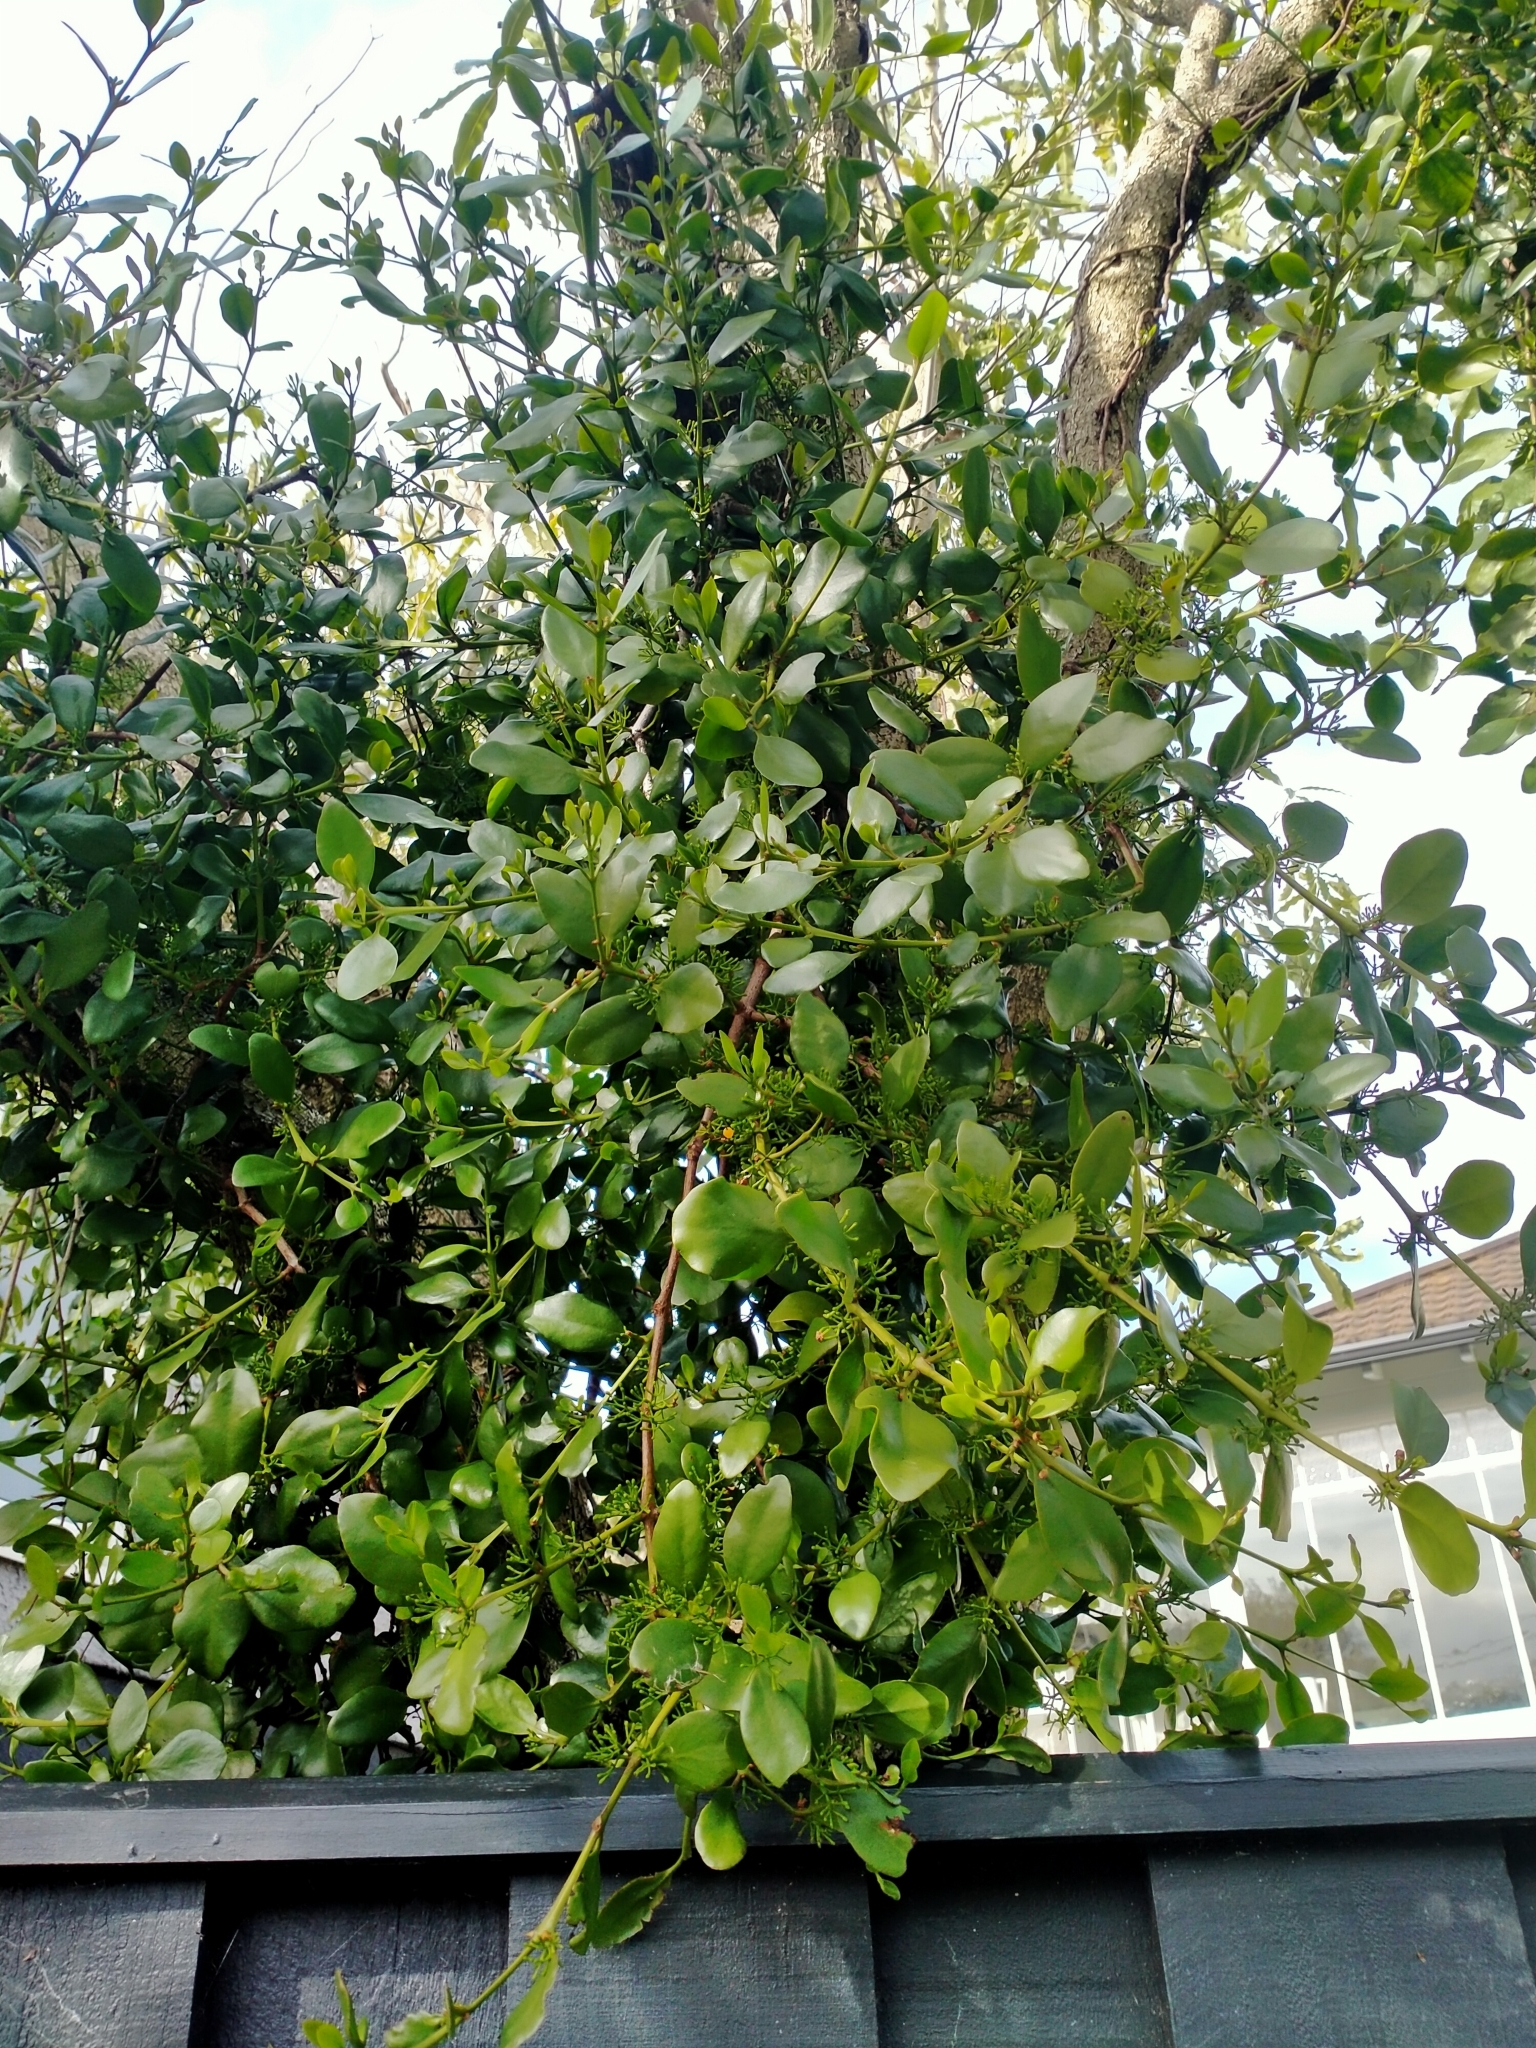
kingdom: Plantae
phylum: Tracheophyta
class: Magnoliopsida
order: Santalales
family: Loranthaceae
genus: Ileostylus
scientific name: Ileostylus micranthus
